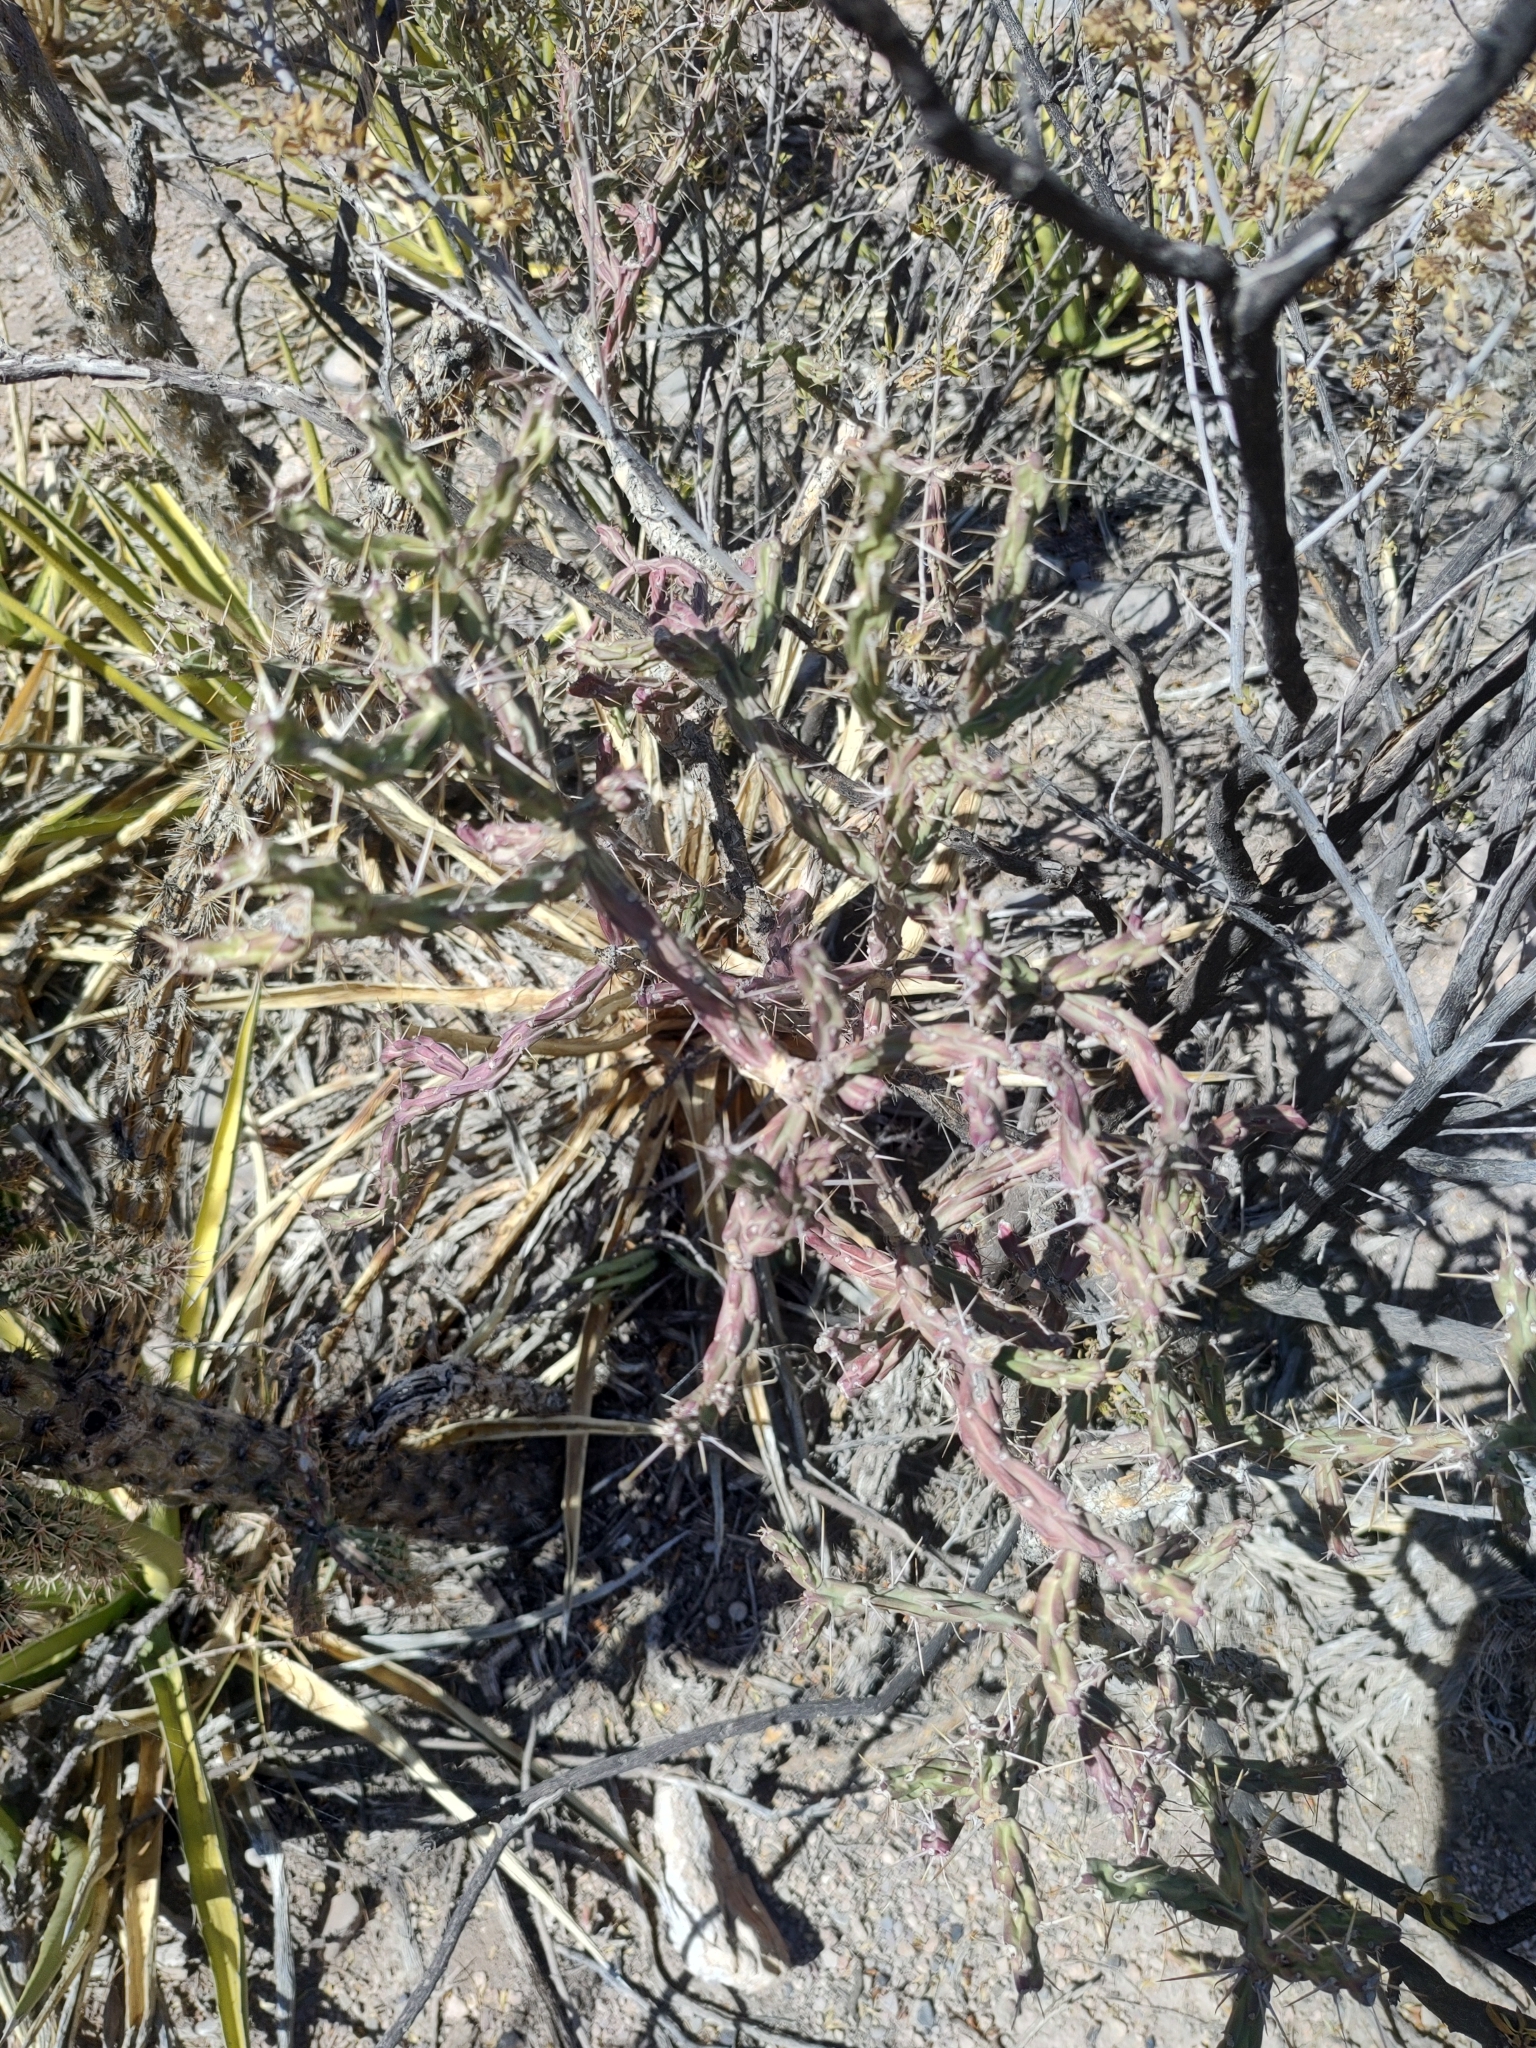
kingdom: Plantae
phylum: Tracheophyta
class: Magnoliopsida
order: Caryophyllales
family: Cactaceae
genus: Cylindropuntia
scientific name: Cylindropuntia leptocaulis
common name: Christmas cactus
